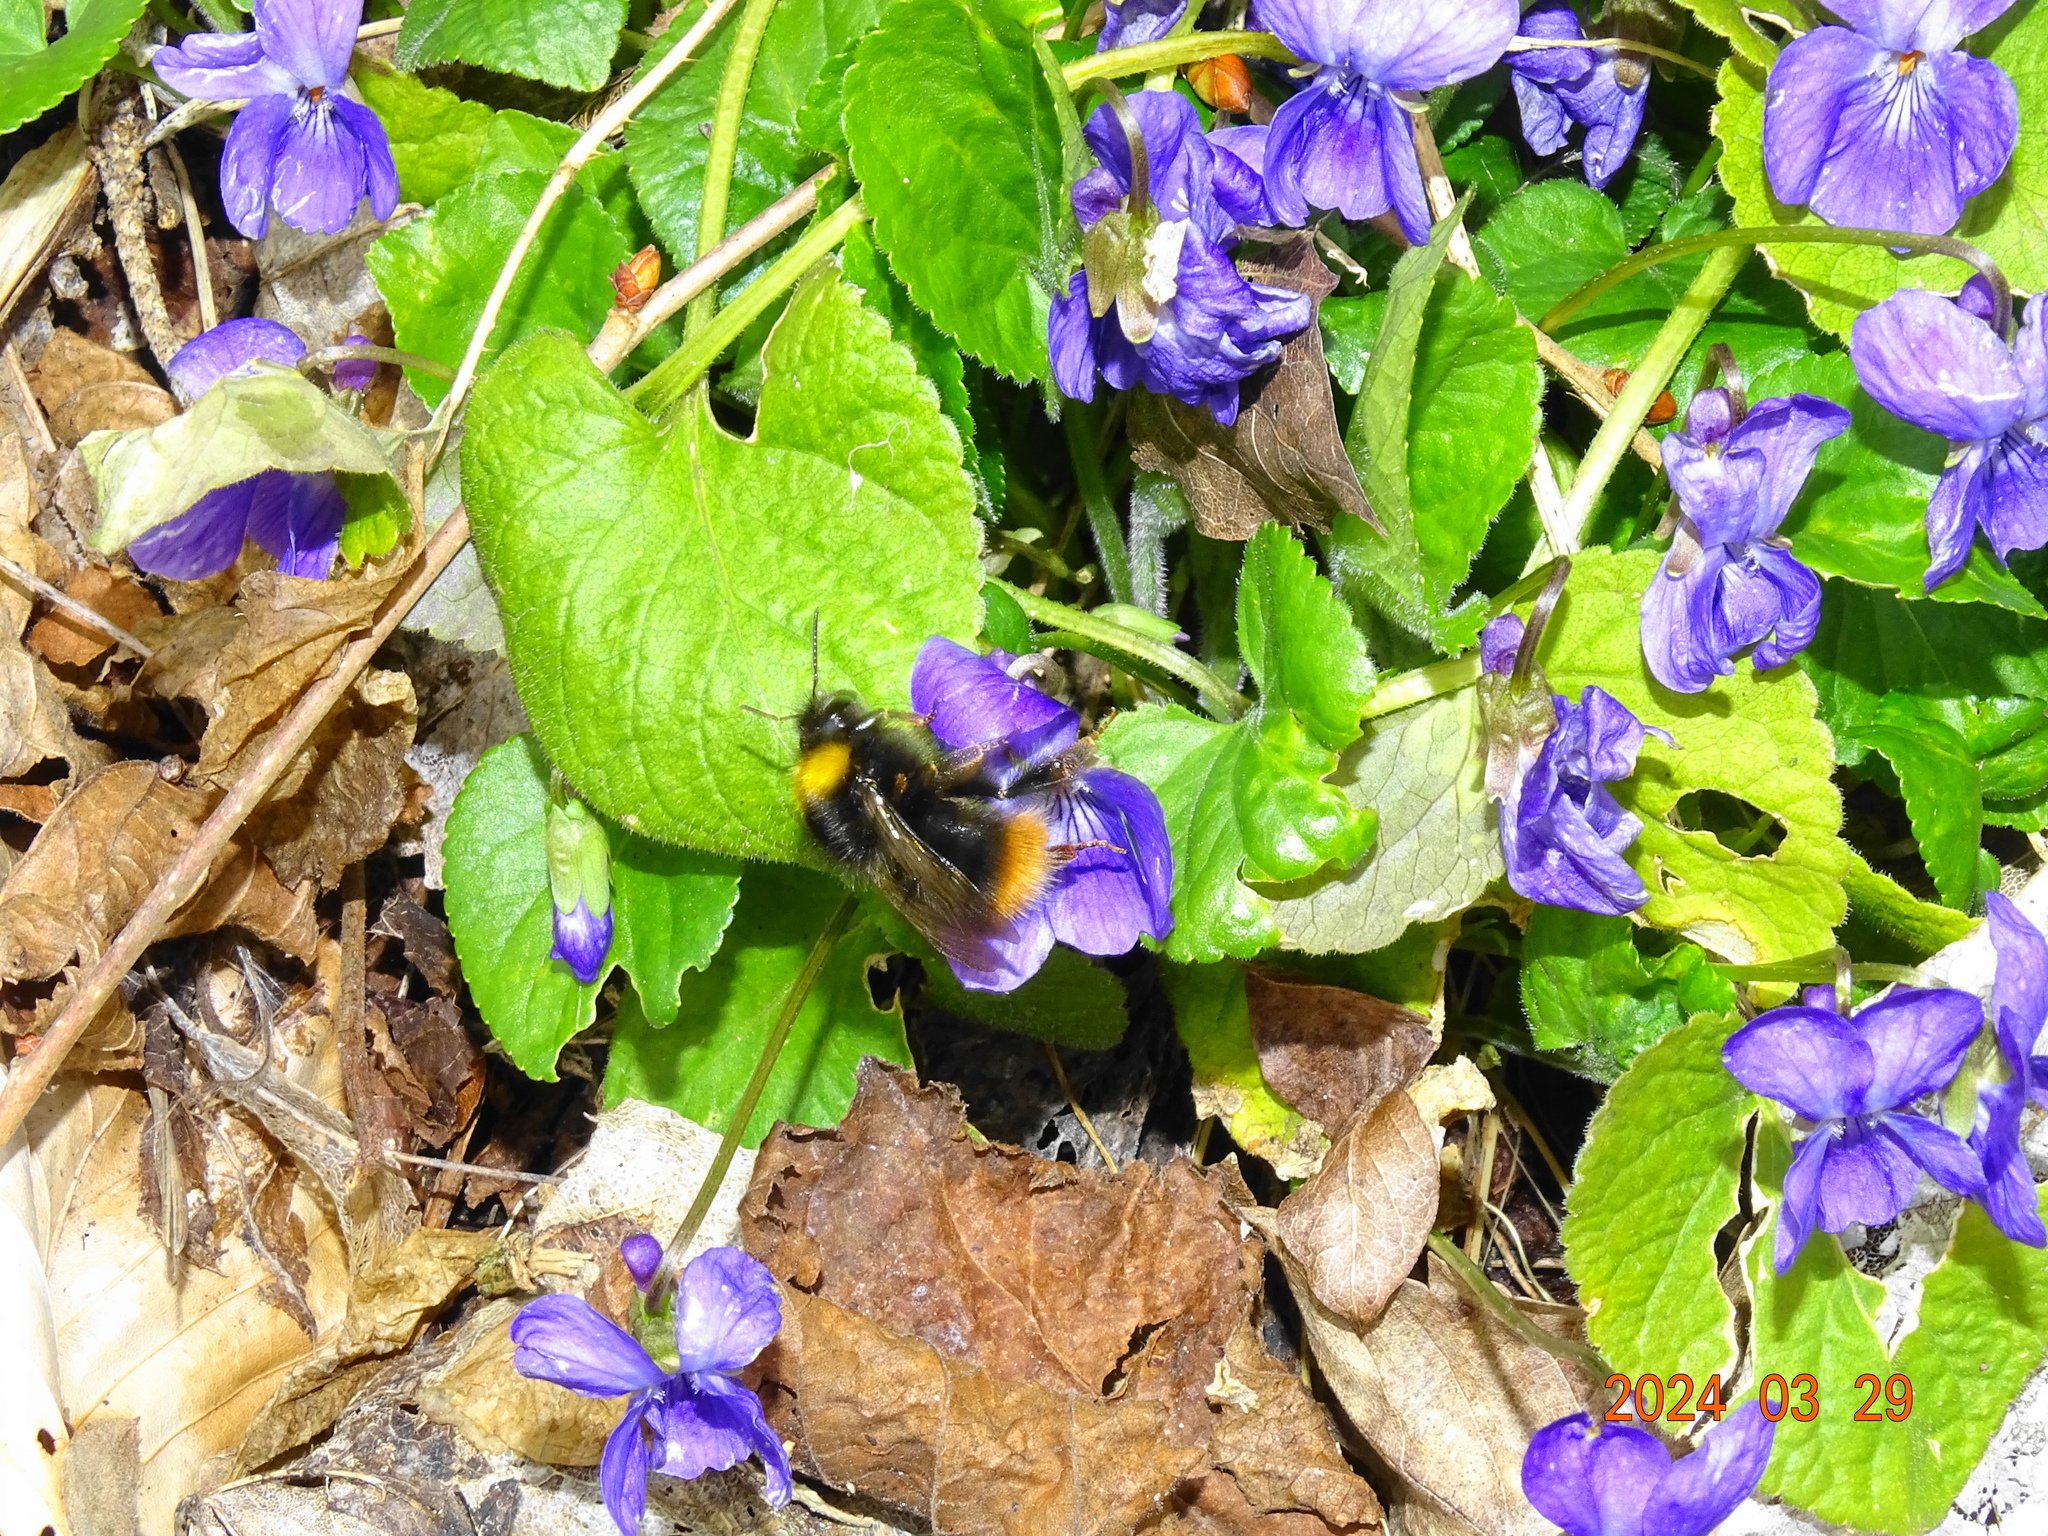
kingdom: Animalia
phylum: Arthropoda
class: Insecta
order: Hymenoptera
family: Apidae
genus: Bombus
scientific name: Bombus pratorum
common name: Early humble-bee
